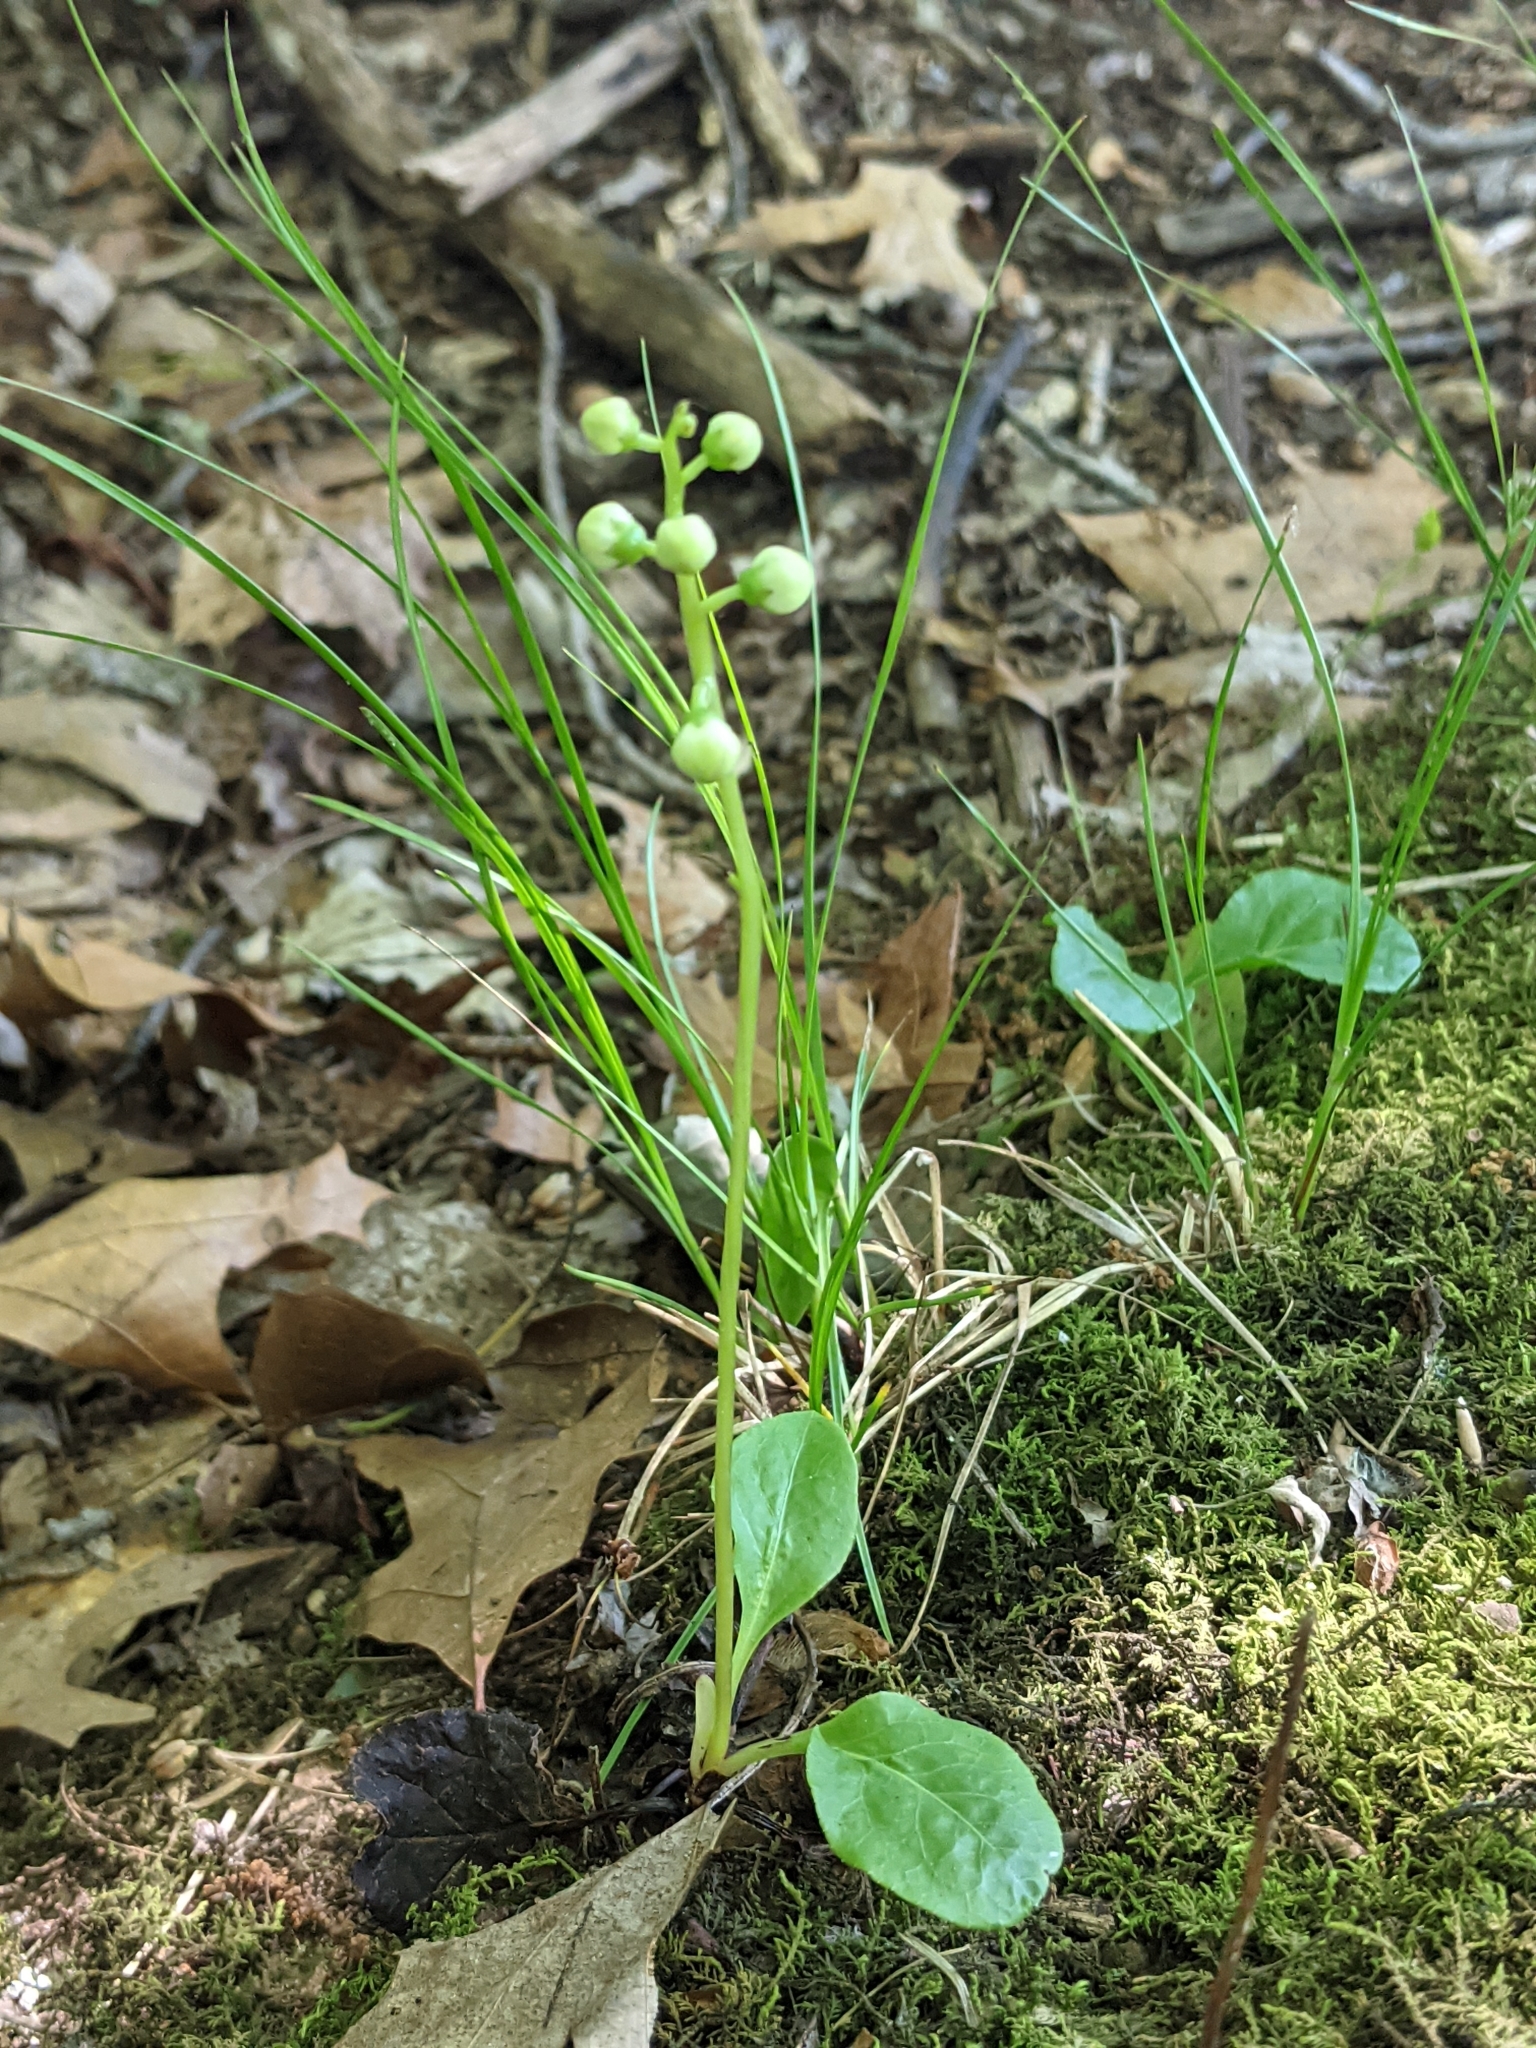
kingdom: Plantae
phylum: Tracheophyta
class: Magnoliopsida
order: Ericales
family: Ericaceae
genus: Pyrola
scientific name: Pyrola elliptica
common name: Shinleaf
